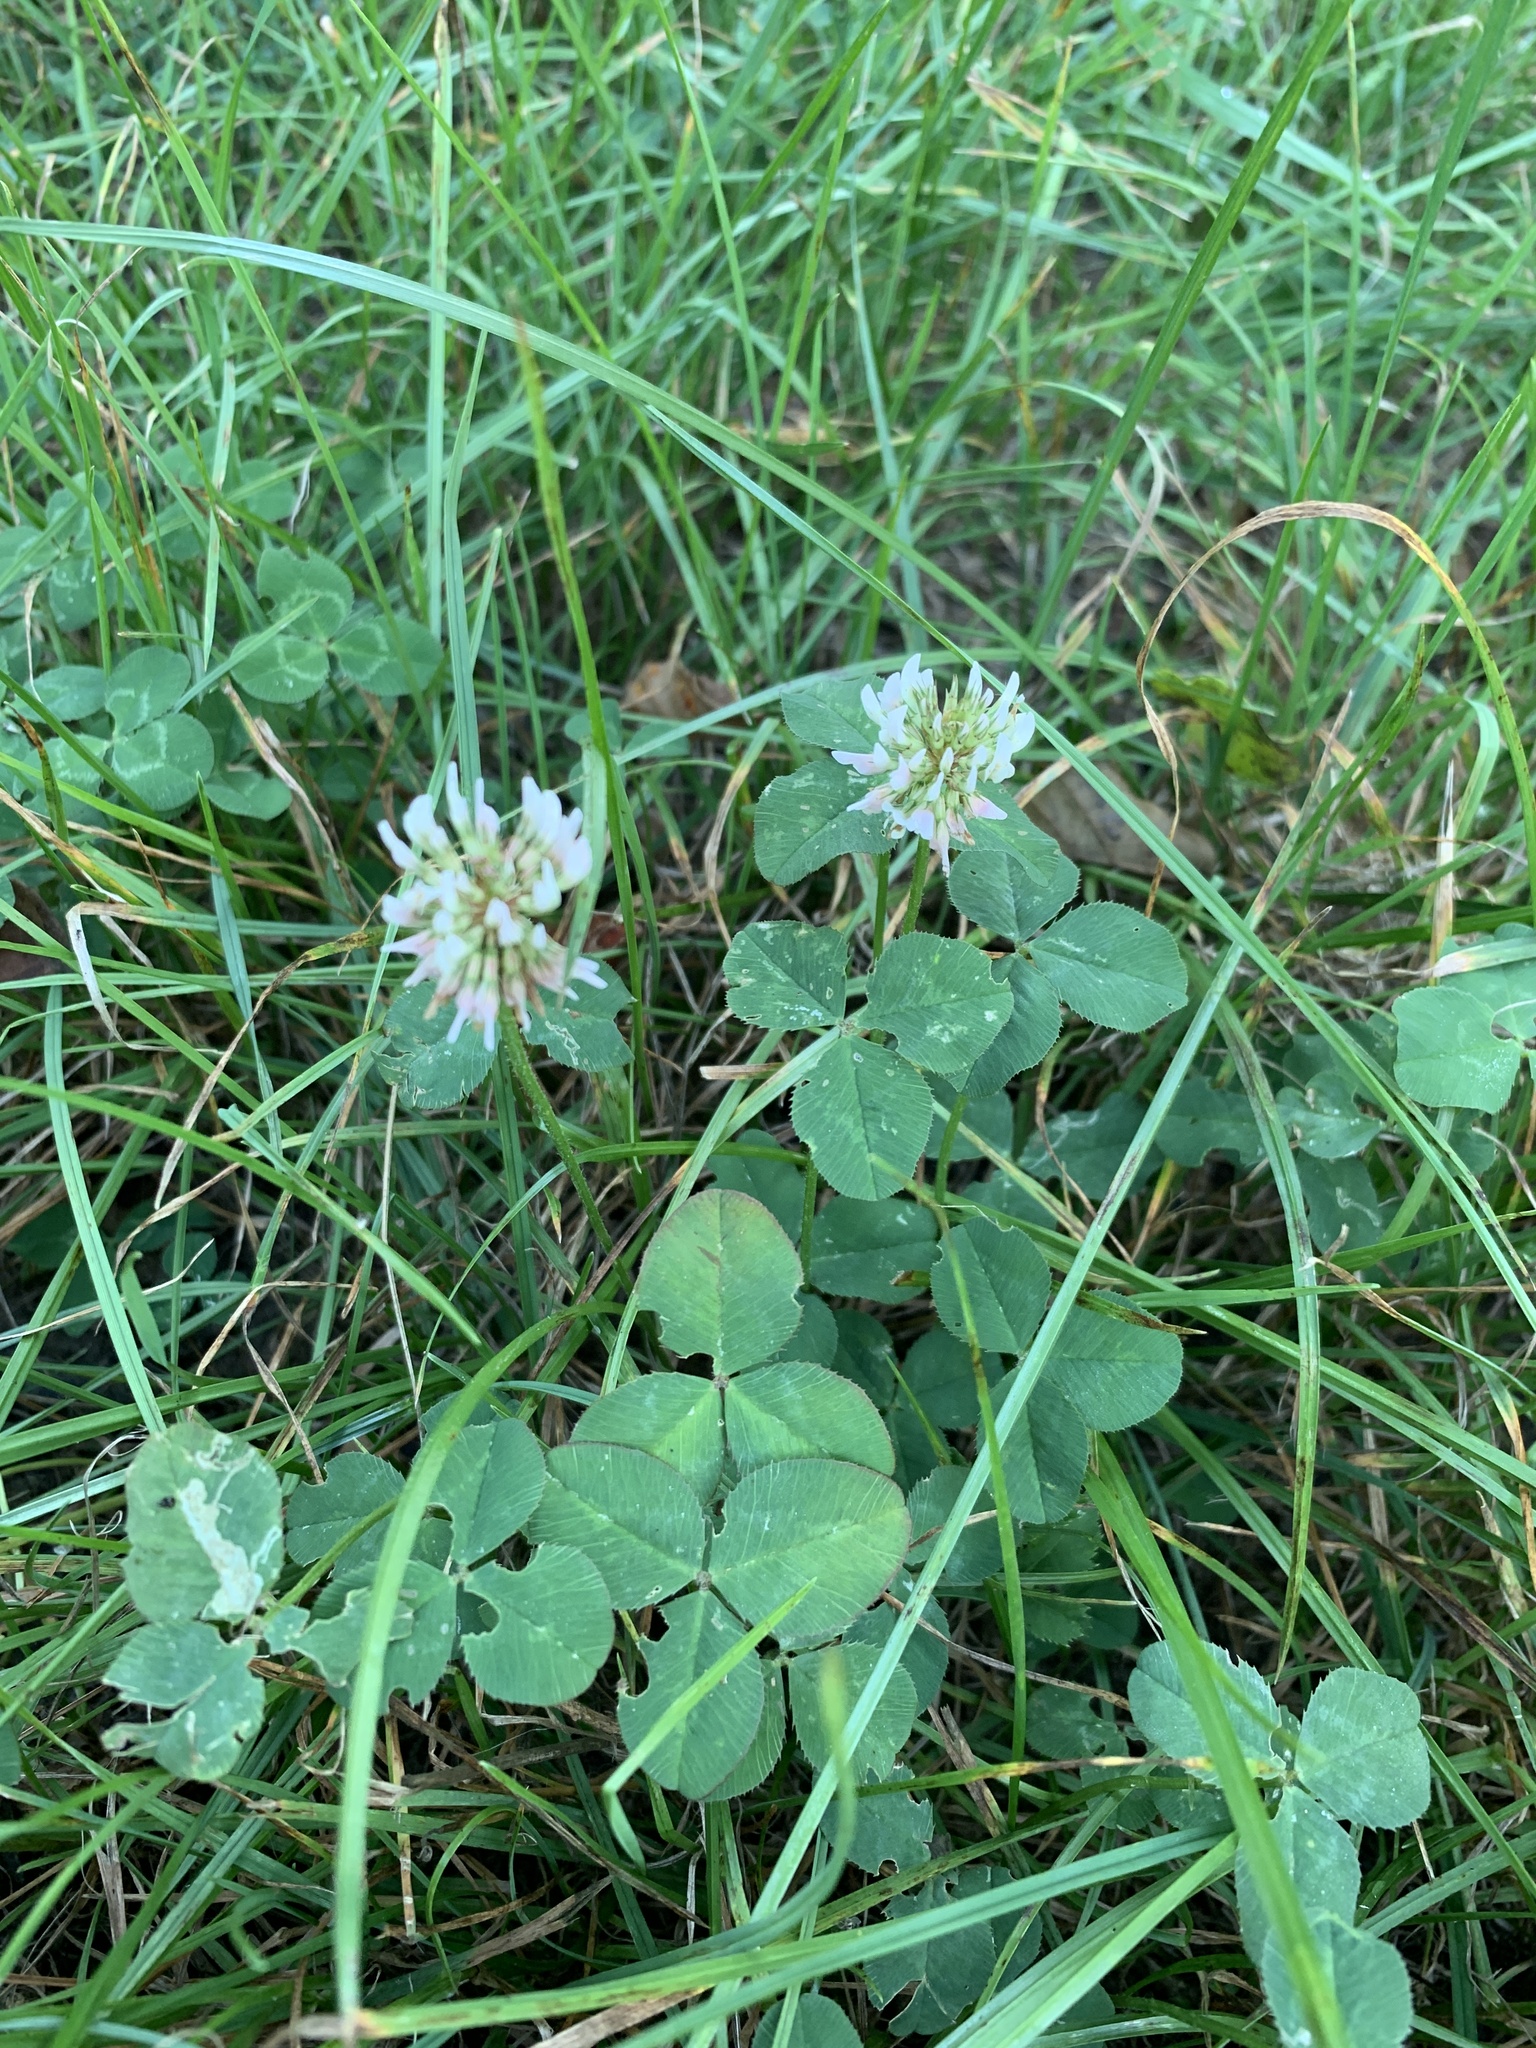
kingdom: Plantae
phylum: Tracheophyta
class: Magnoliopsida
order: Fabales
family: Fabaceae
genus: Trifolium
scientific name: Trifolium repens
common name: White clover
